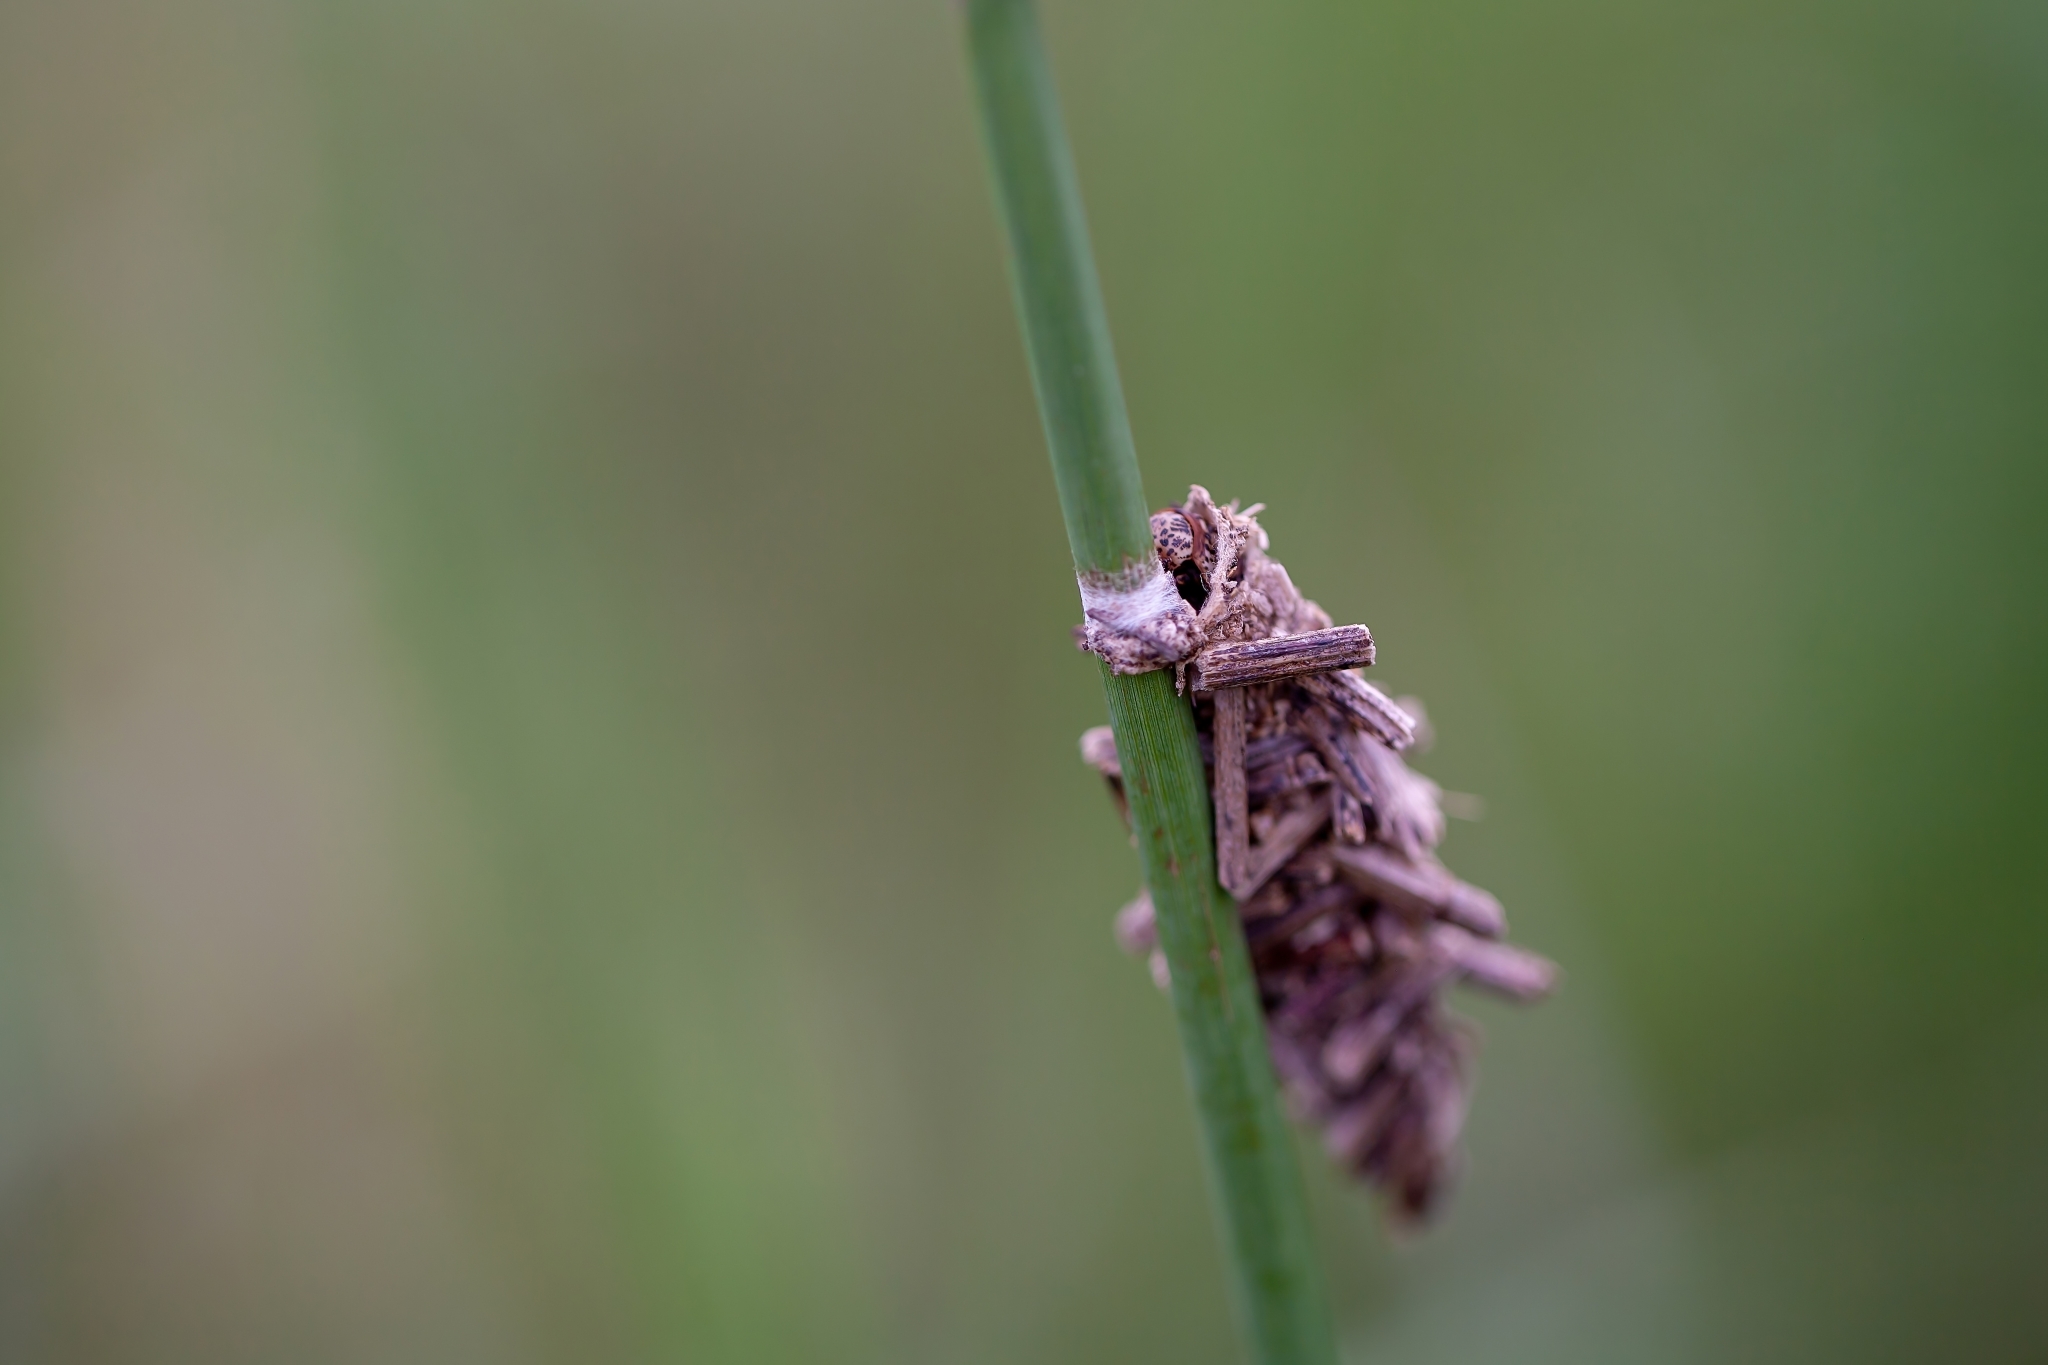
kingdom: Animalia
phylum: Arthropoda
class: Insecta
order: Lepidoptera
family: Psychidae
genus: Oiketicus
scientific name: Oiketicus
